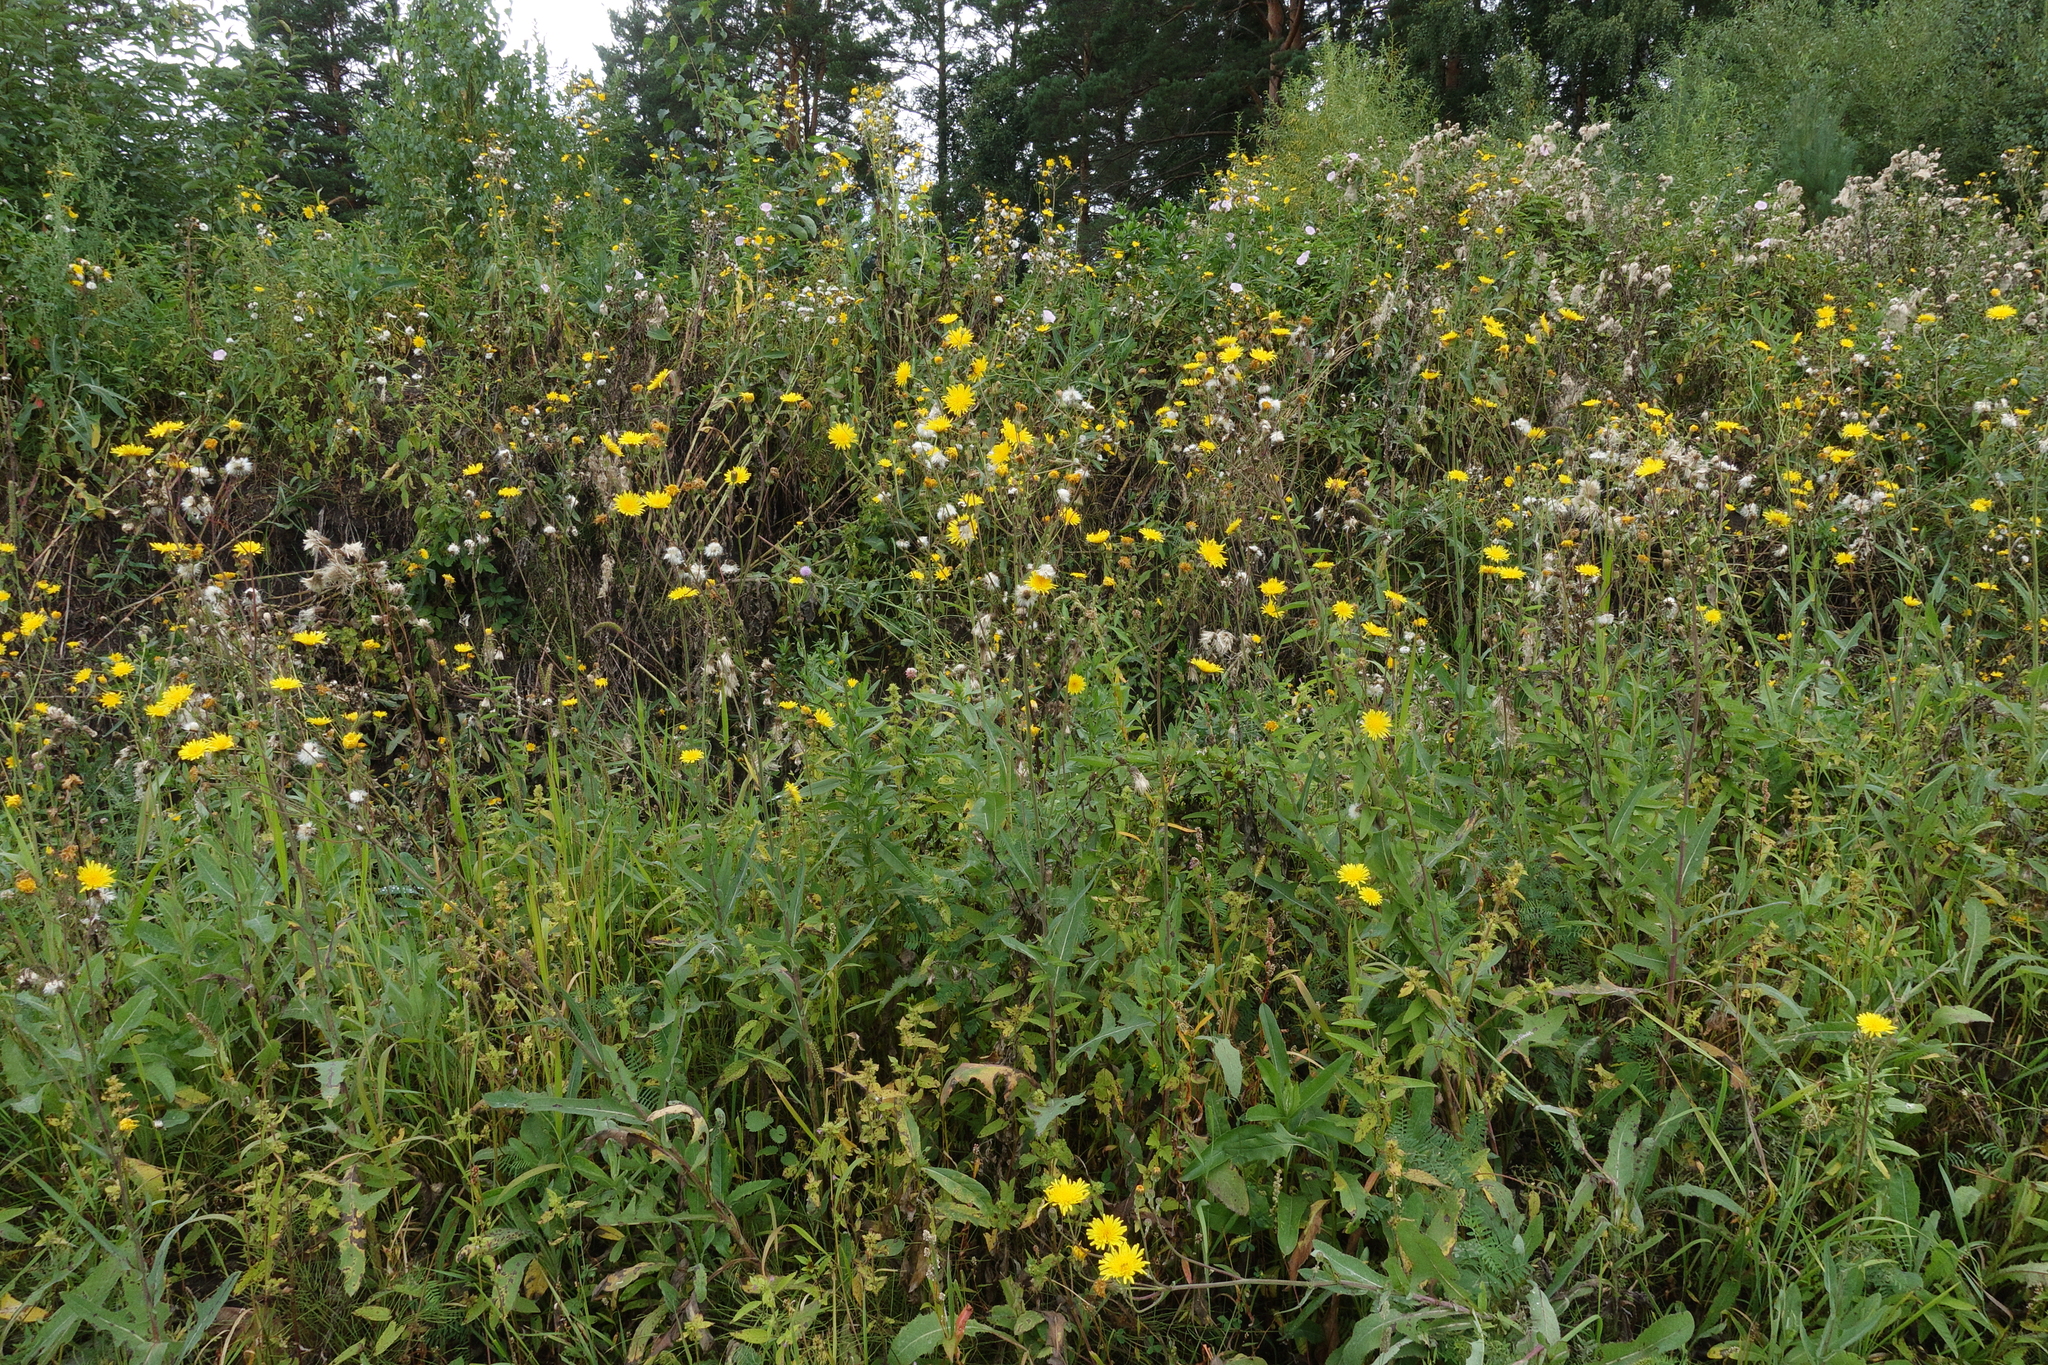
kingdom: Plantae
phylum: Tracheophyta
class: Magnoliopsida
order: Asterales
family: Asteraceae
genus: Sonchus
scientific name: Sonchus arvensis
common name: Perennial sow-thistle
